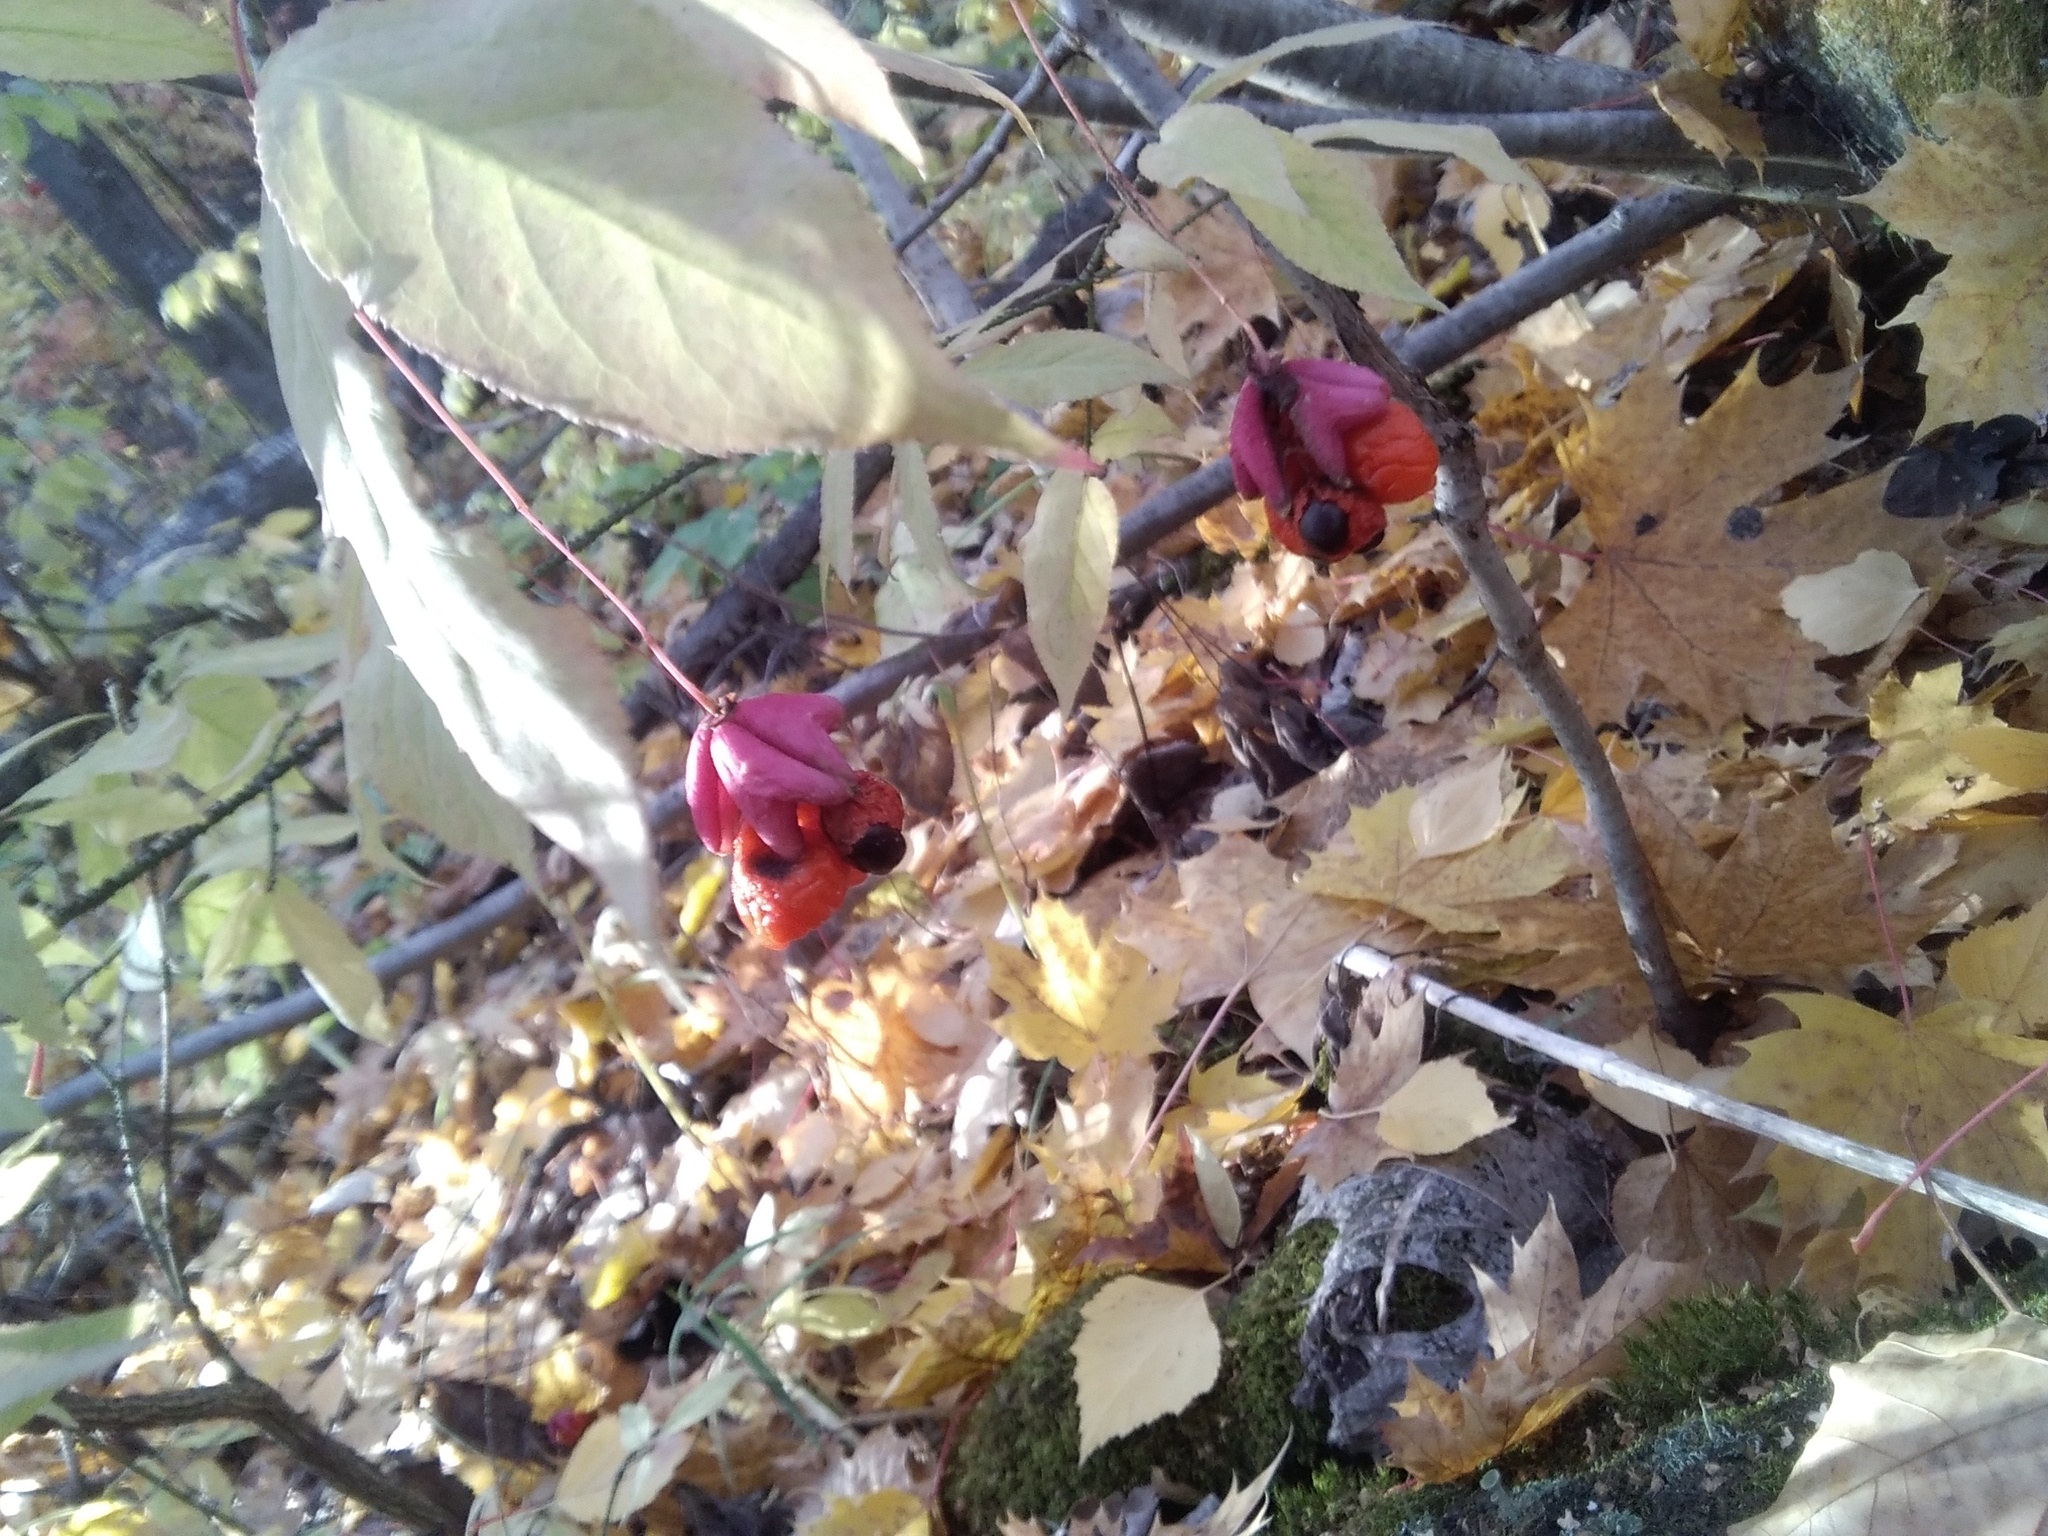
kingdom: Plantae
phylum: Tracheophyta
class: Magnoliopsida
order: Celastrales
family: Celastraceae
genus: Euonymus
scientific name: Euonymus verrucosus
